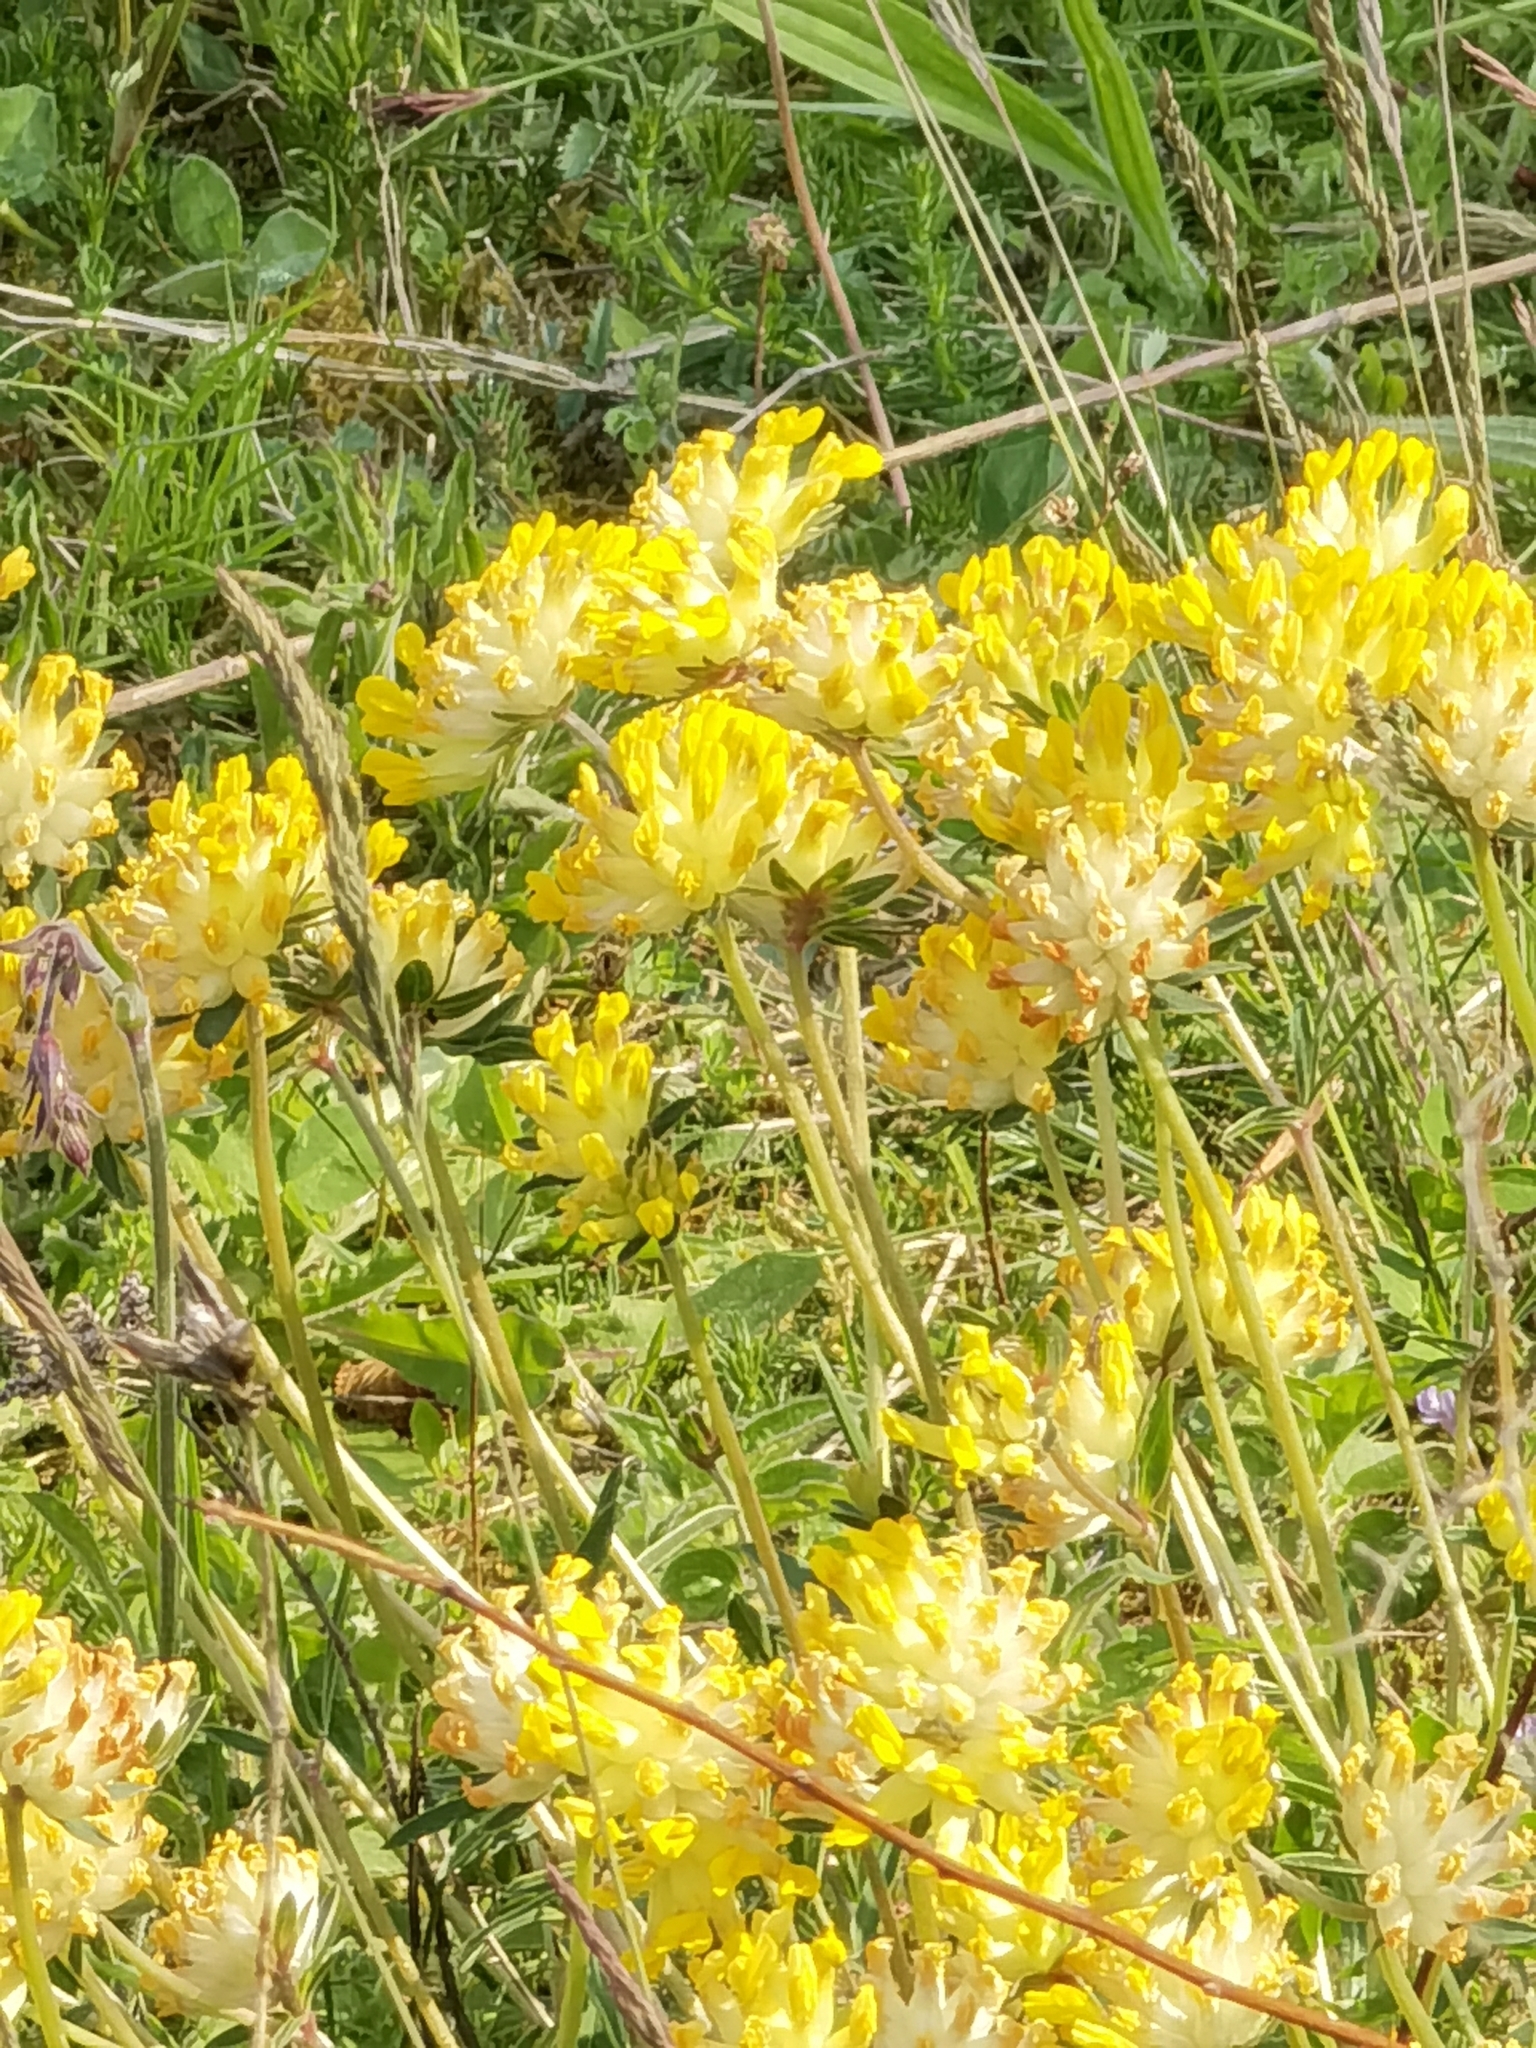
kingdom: Plantae
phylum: Tracheophyta
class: Magnoliopsida
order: Fabales
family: Fabaceae
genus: Anthyllis
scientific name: Anthyllis vulneraria
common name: Kidney vetch
